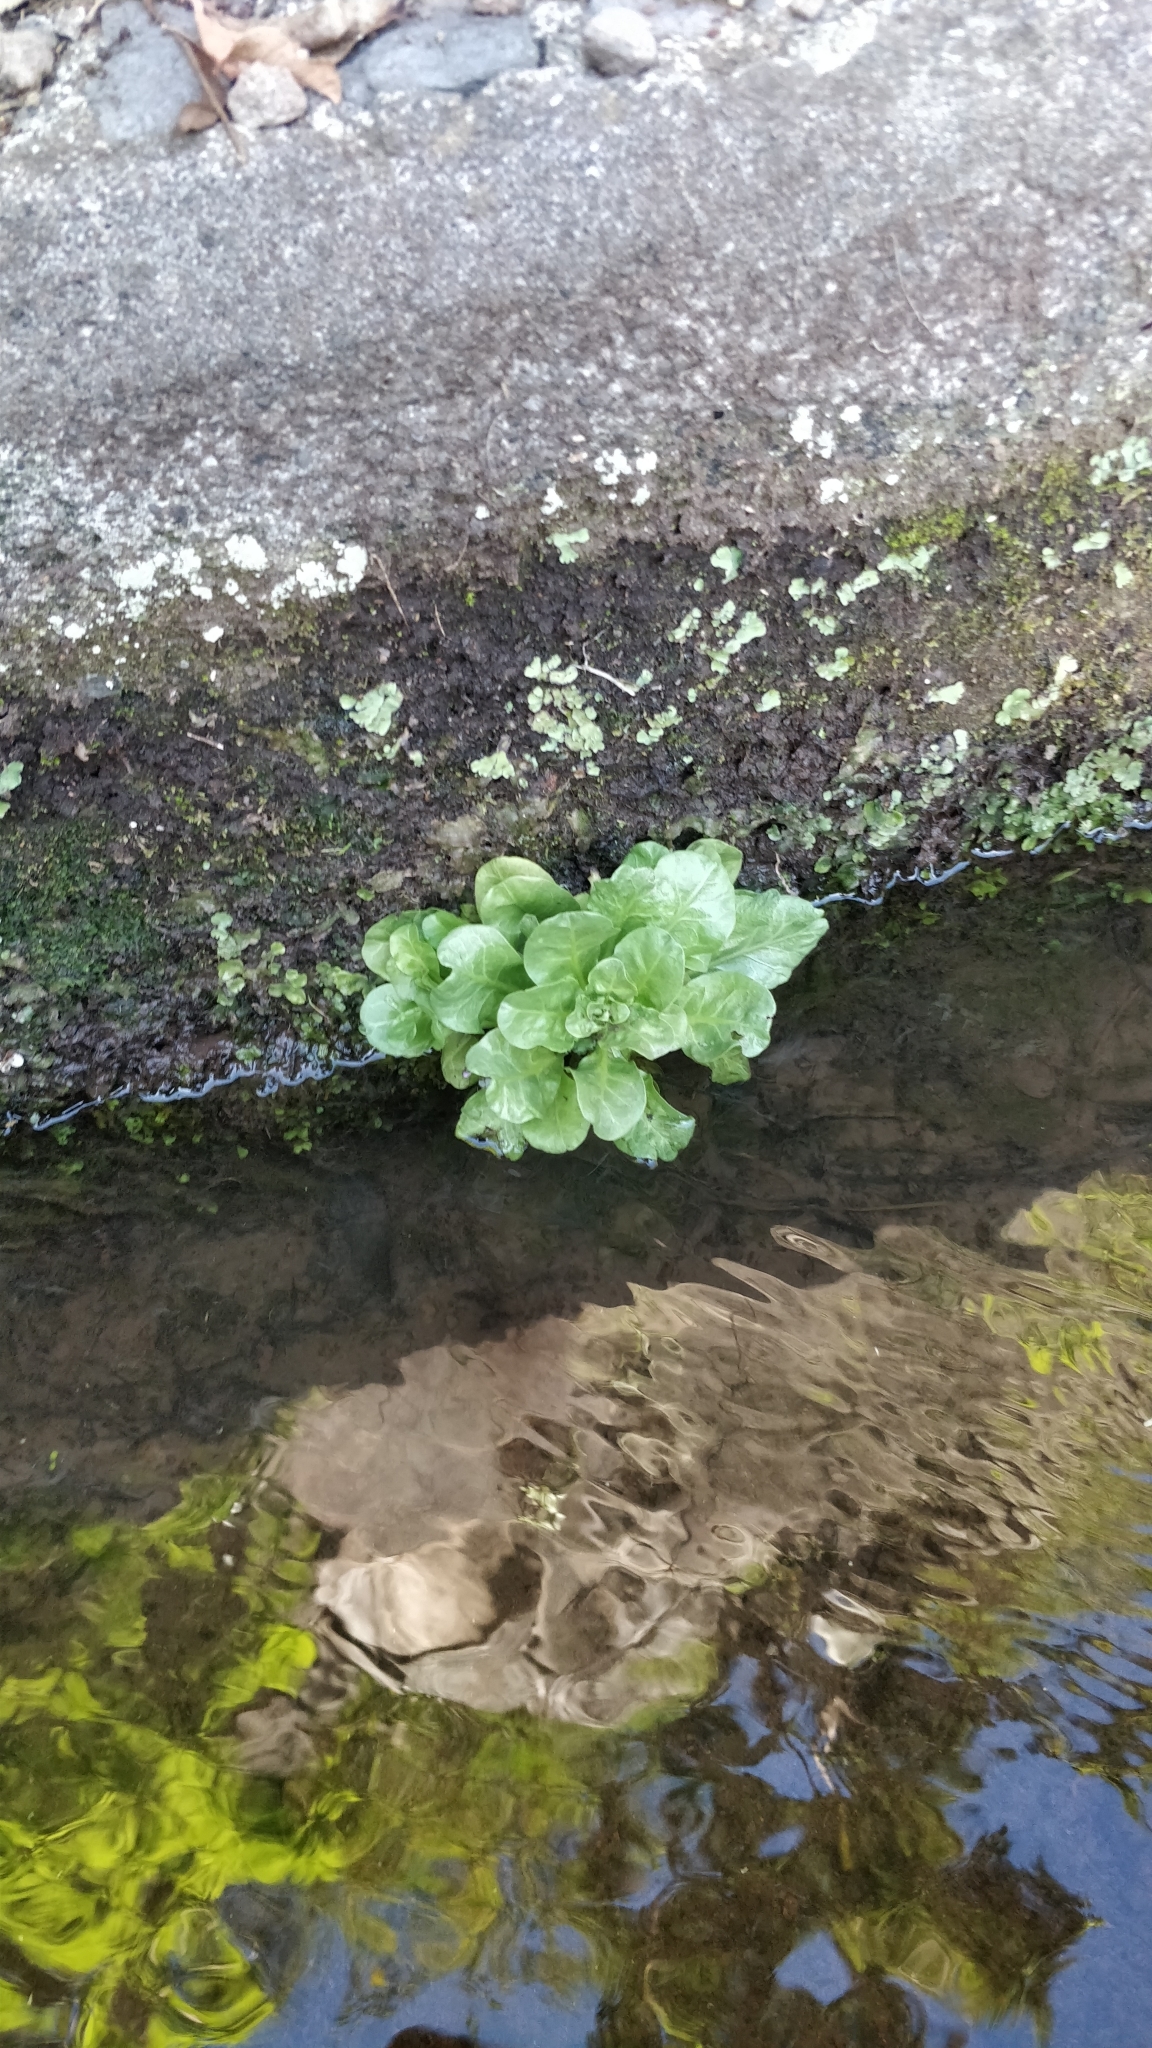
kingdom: Plantae
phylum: Tracheophyta
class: Magnoliopsida
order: Ericales
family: Primulaceae
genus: Samolus
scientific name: Samolus valerandi
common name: Brookweed
